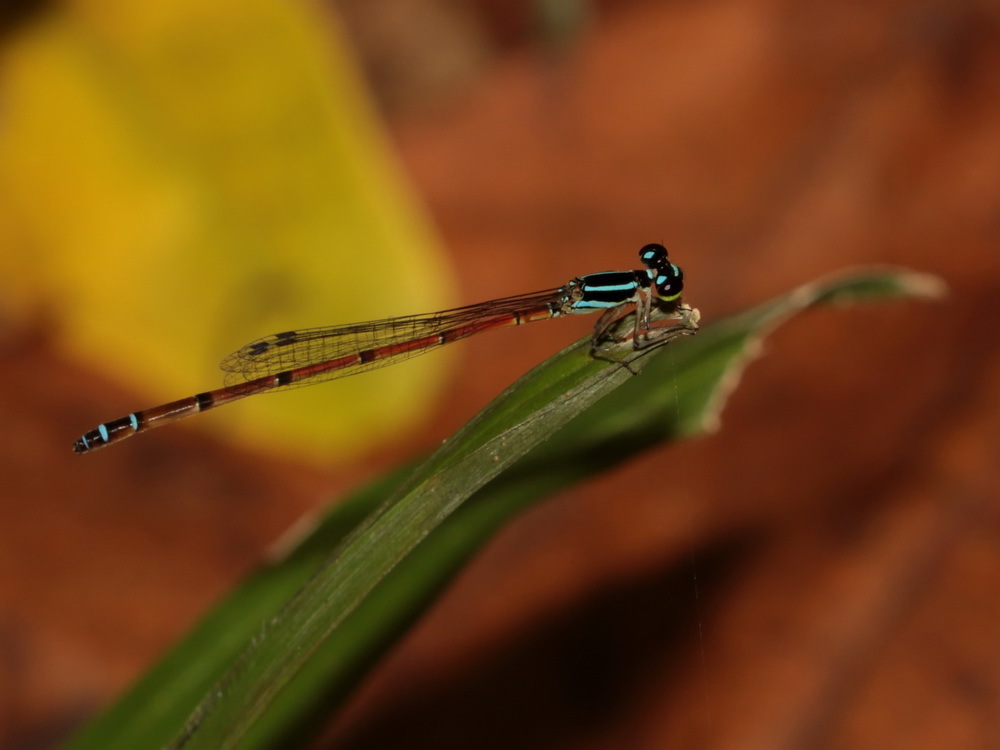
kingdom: Animalia
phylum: Arthropoda
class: Insecta
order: Odonata
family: Coenagrionidae
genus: Mortonagrion
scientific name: Mortonagrion aborense
